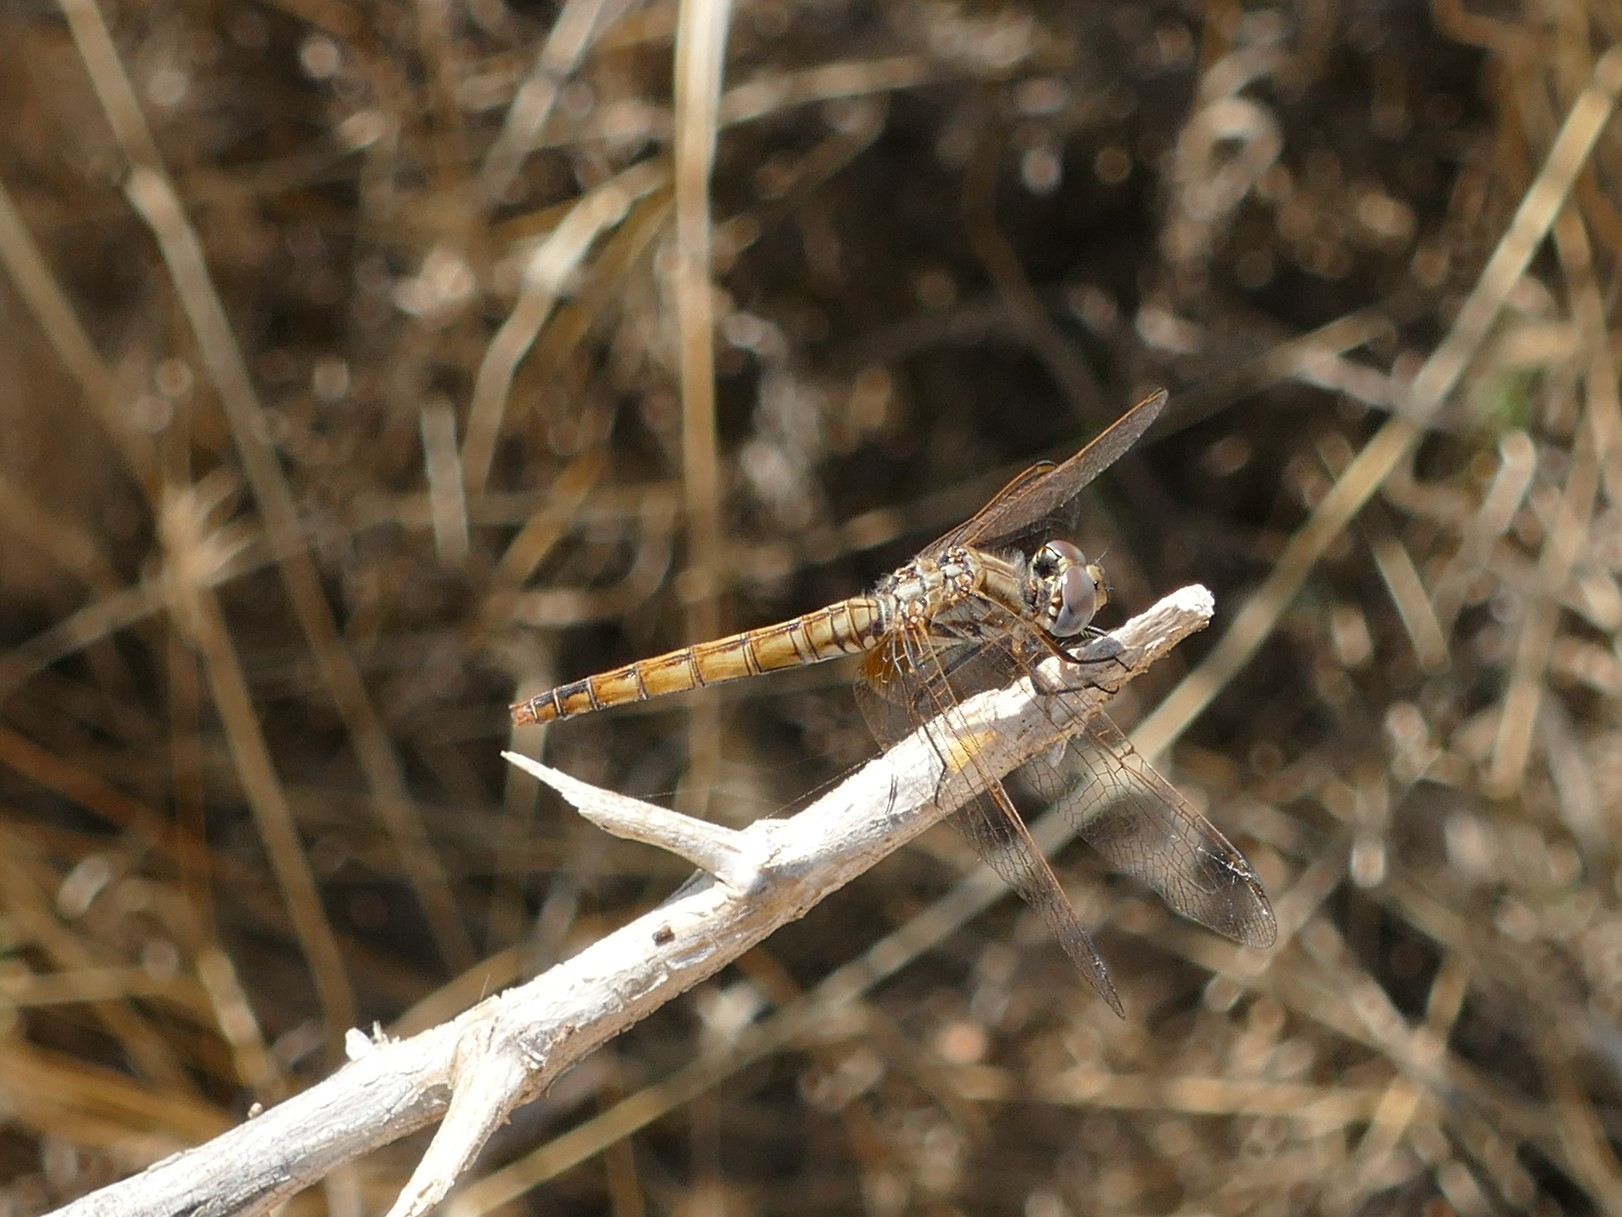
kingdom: Animalia
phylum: Arthropoda
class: Insecta
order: Odonata
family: Libellulidae
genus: Trithemis
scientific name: Trithemis annulata
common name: Violet dropwing
